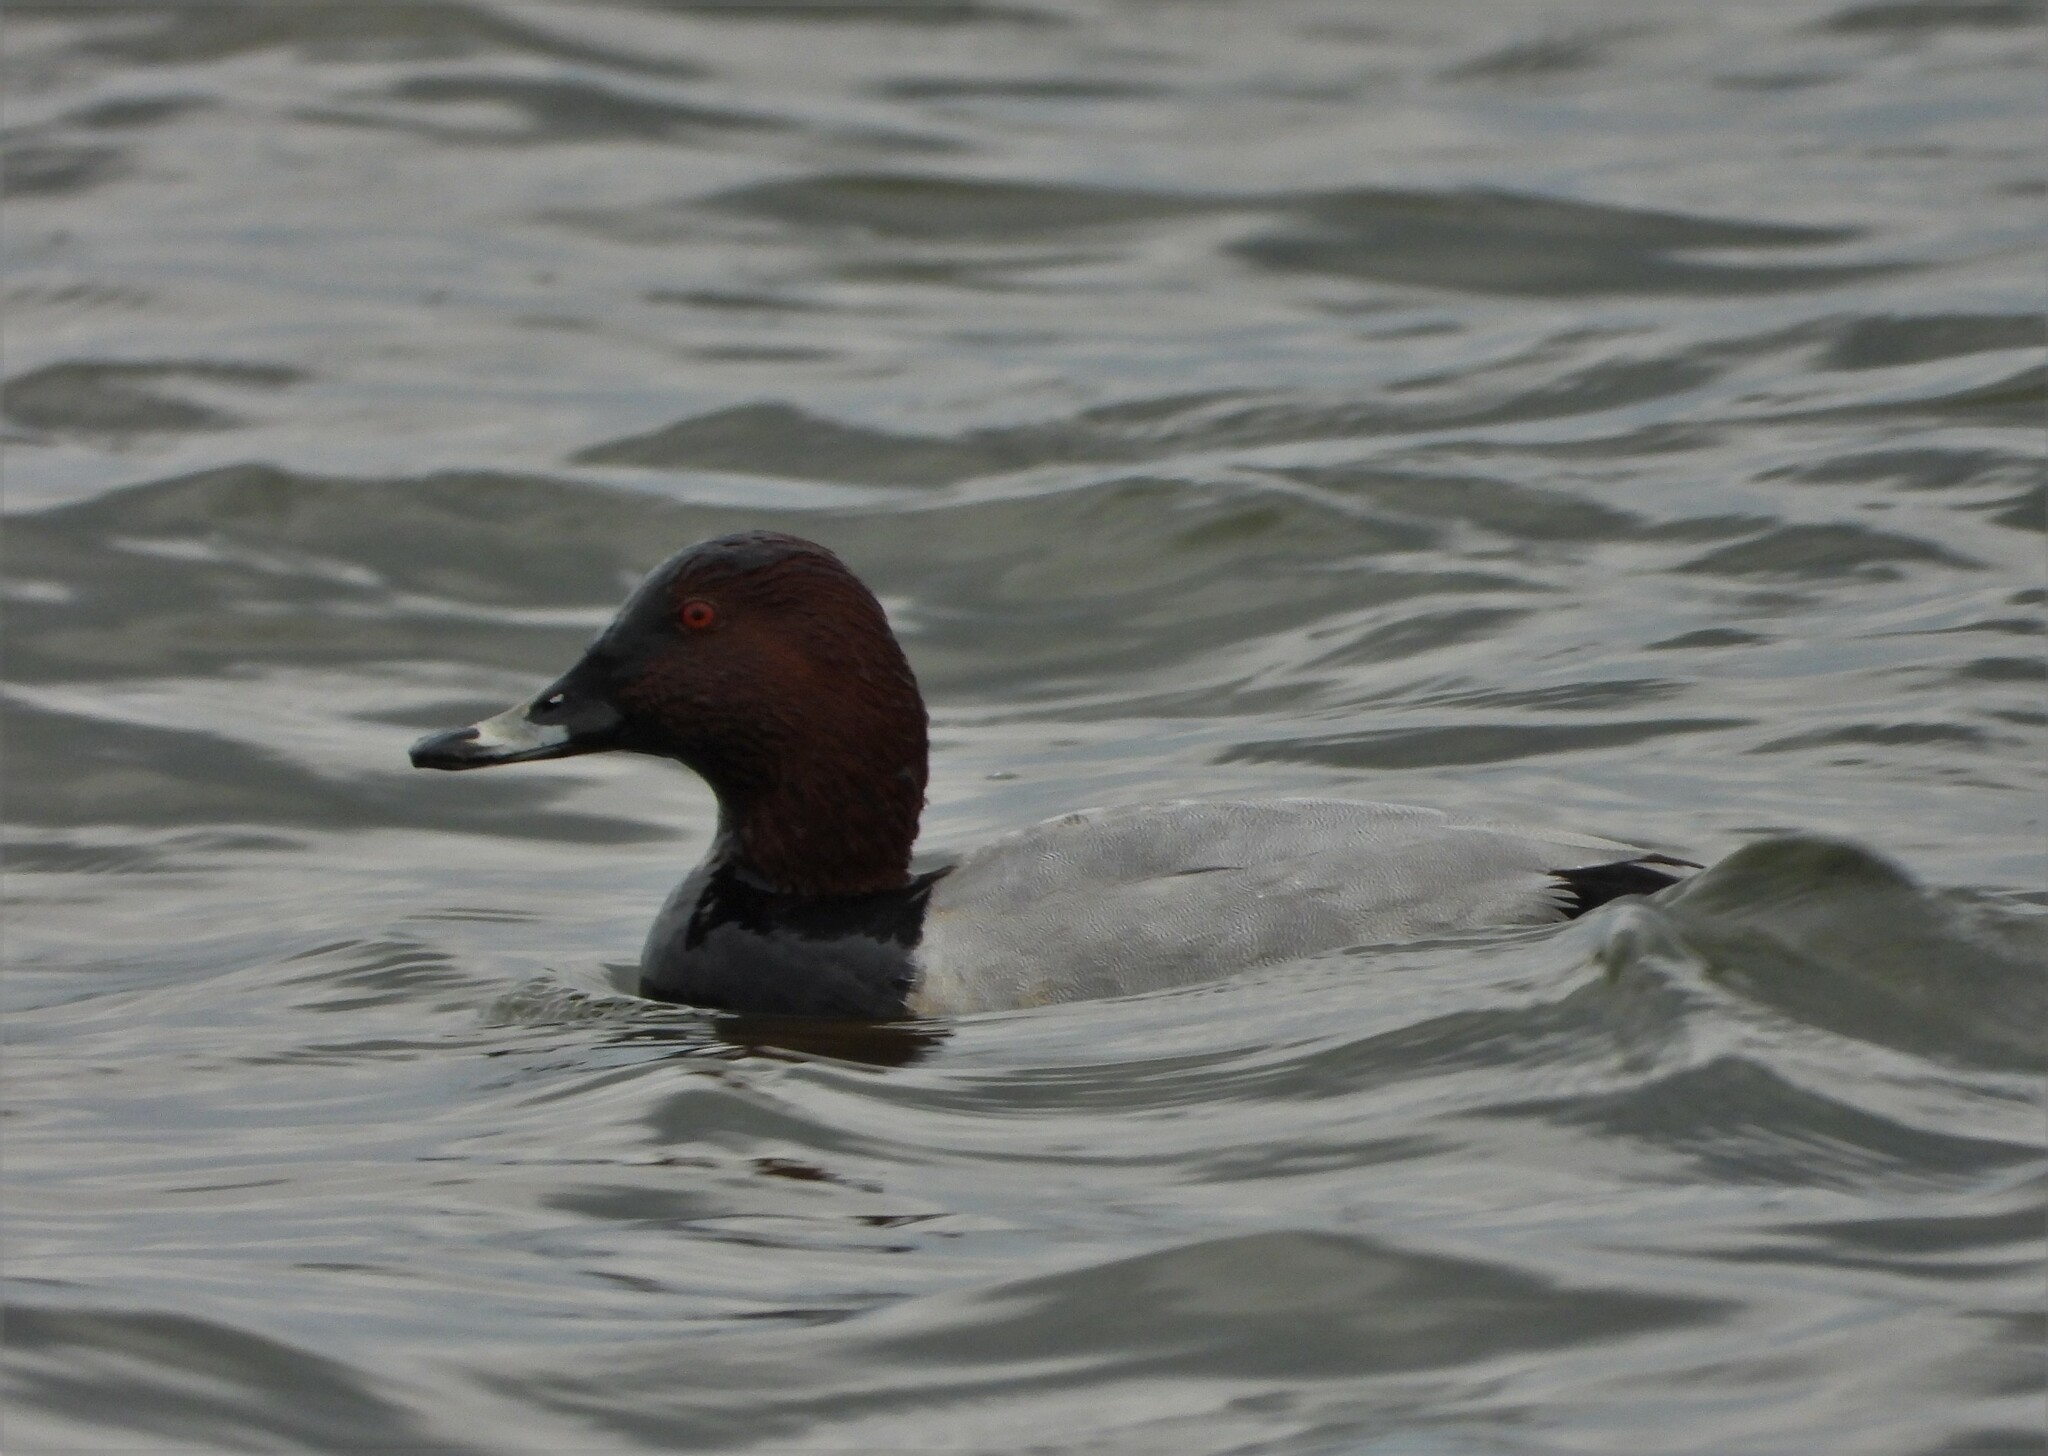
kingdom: Animalia
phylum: Chordata
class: Aves
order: Anseriformes
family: Anatidae
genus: Aythya
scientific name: Aythya ferina
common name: Common pochard
